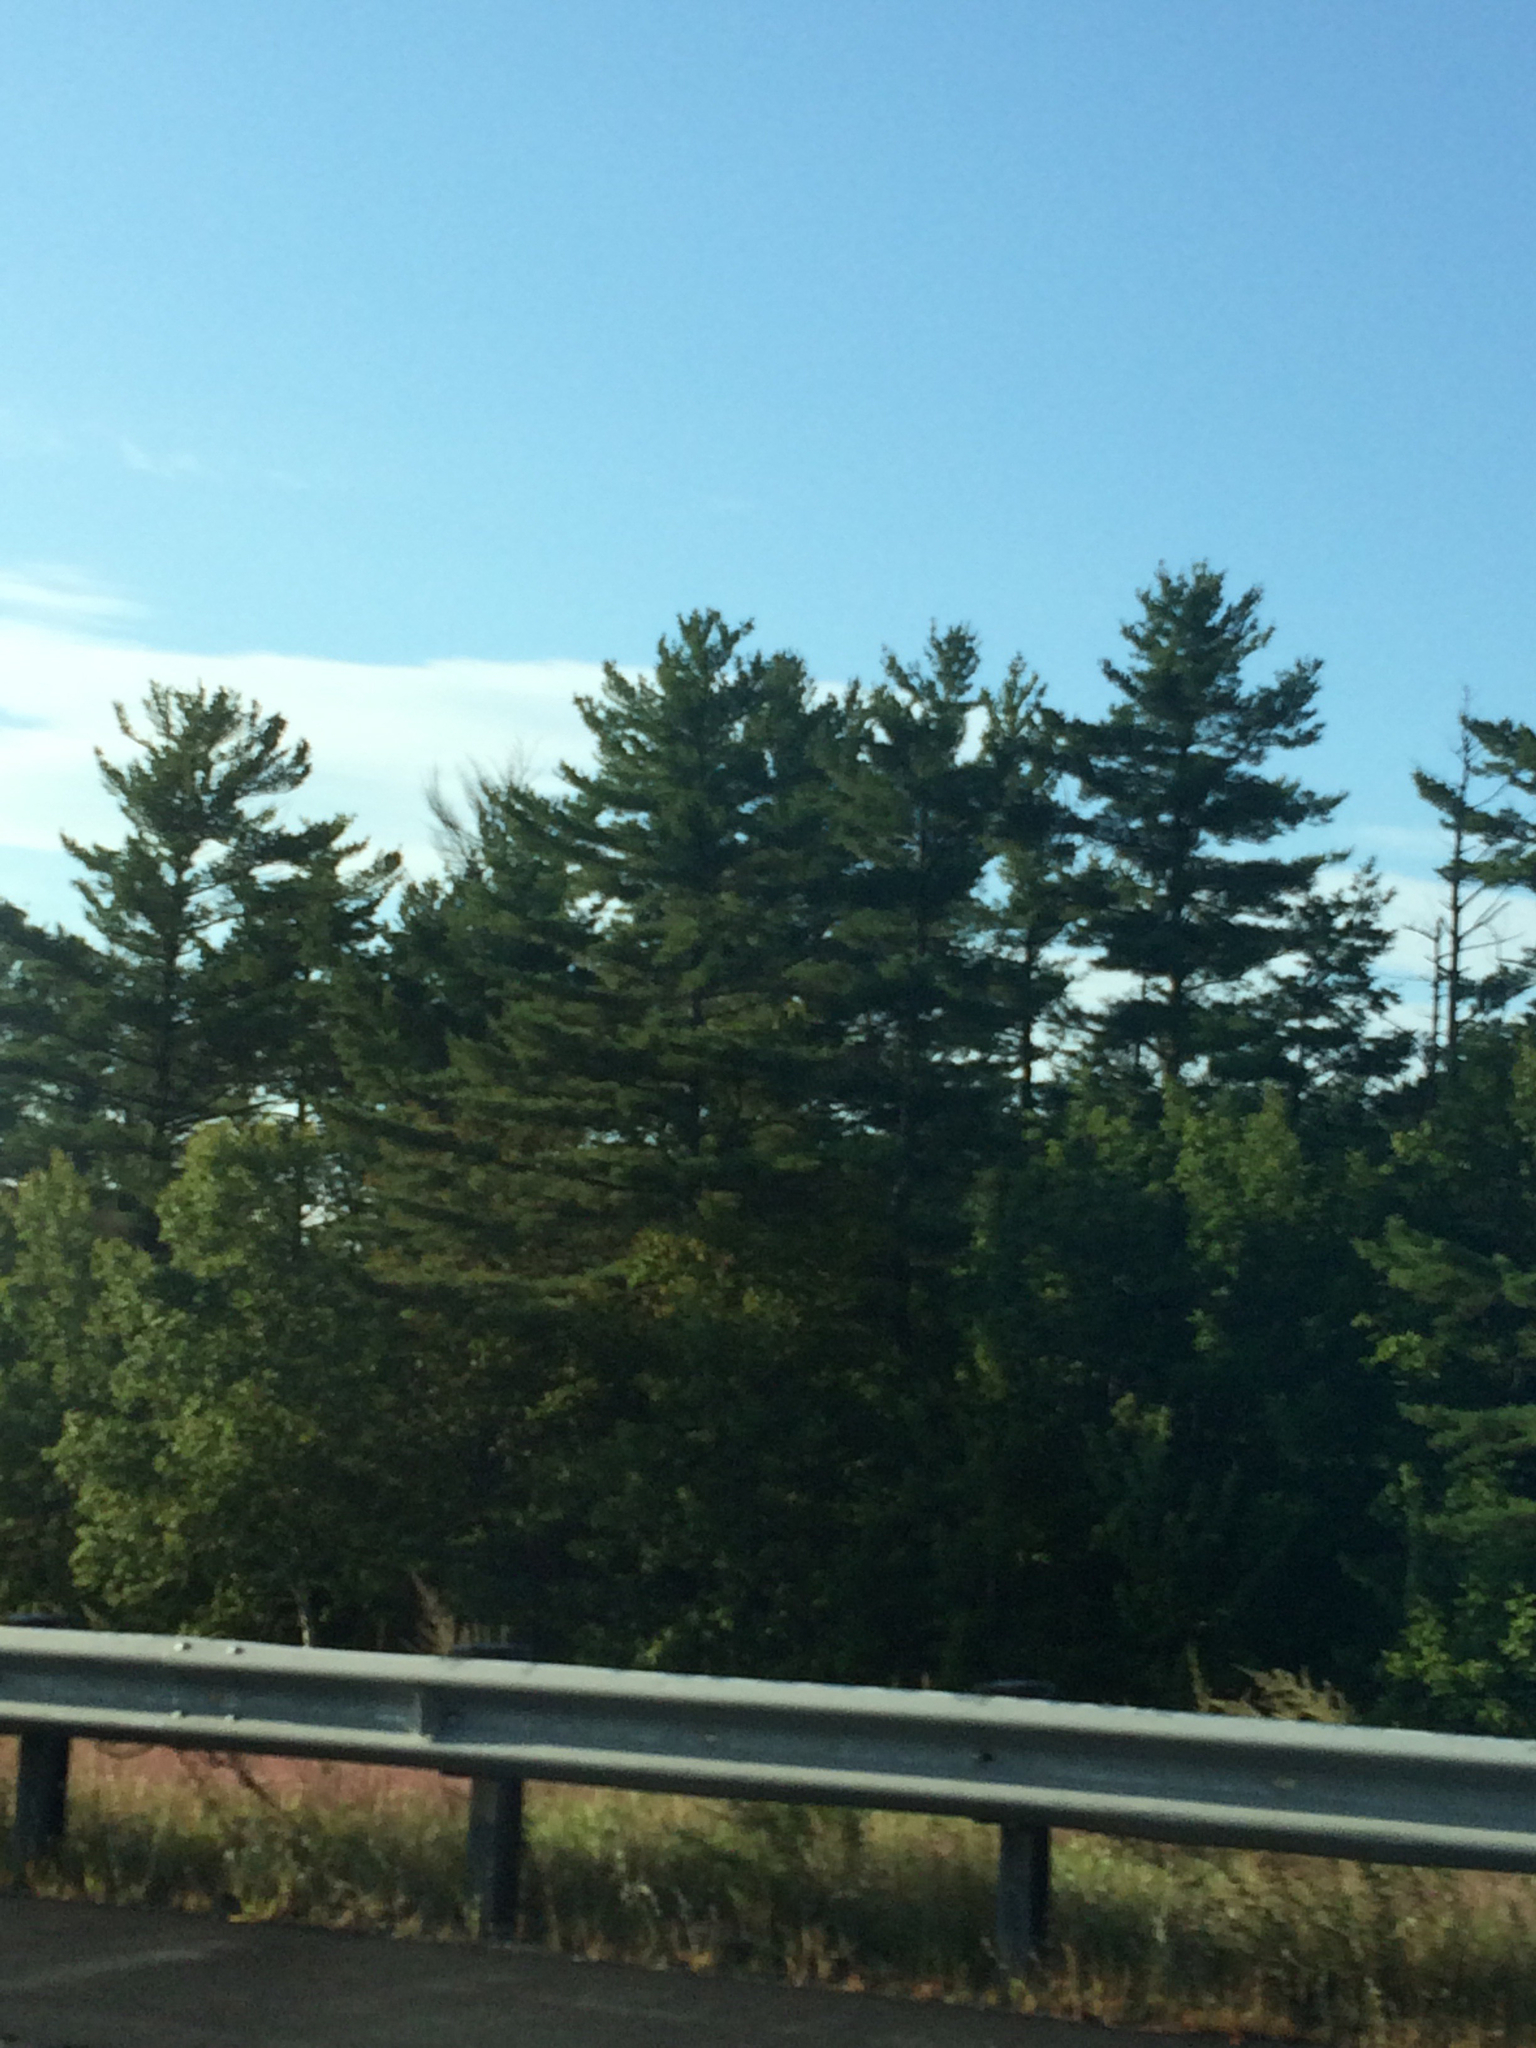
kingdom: Plantae
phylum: Tracheophyta
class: Pinopsida
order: Pinales
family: Pinaceae
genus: Pinus
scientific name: Pinus strobus
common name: Weymouth pine
